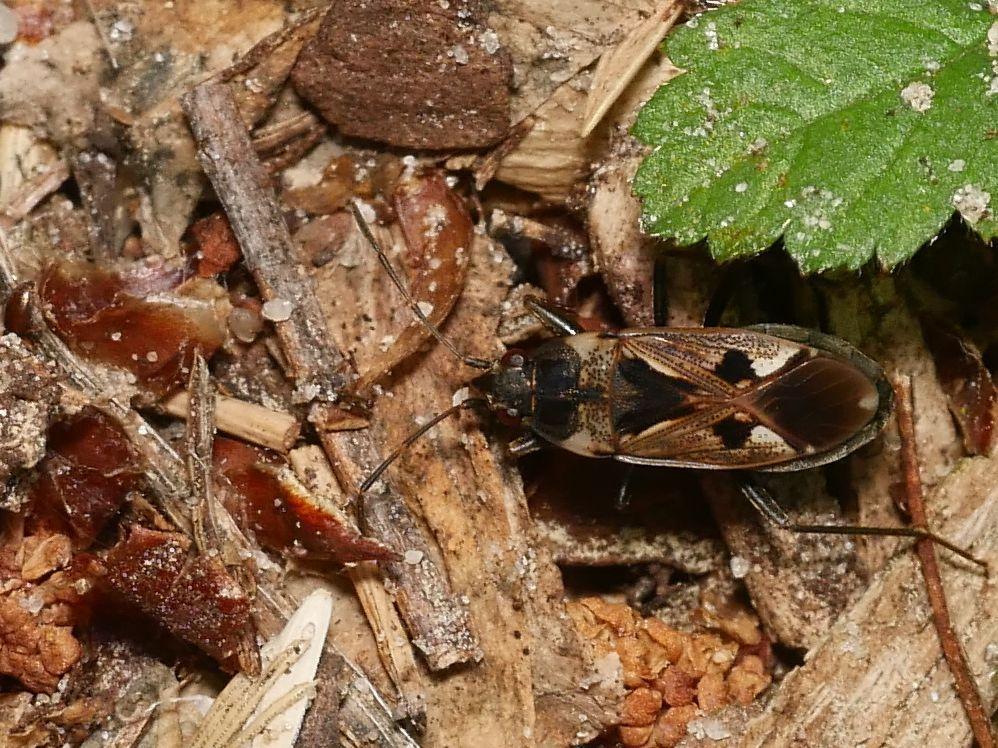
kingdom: Animalia
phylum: Arthropoda
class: Insecta
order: Hemiptera
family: Rhyparochromidae
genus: Rhyparochromus
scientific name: Rhyparochromus vulgaris
